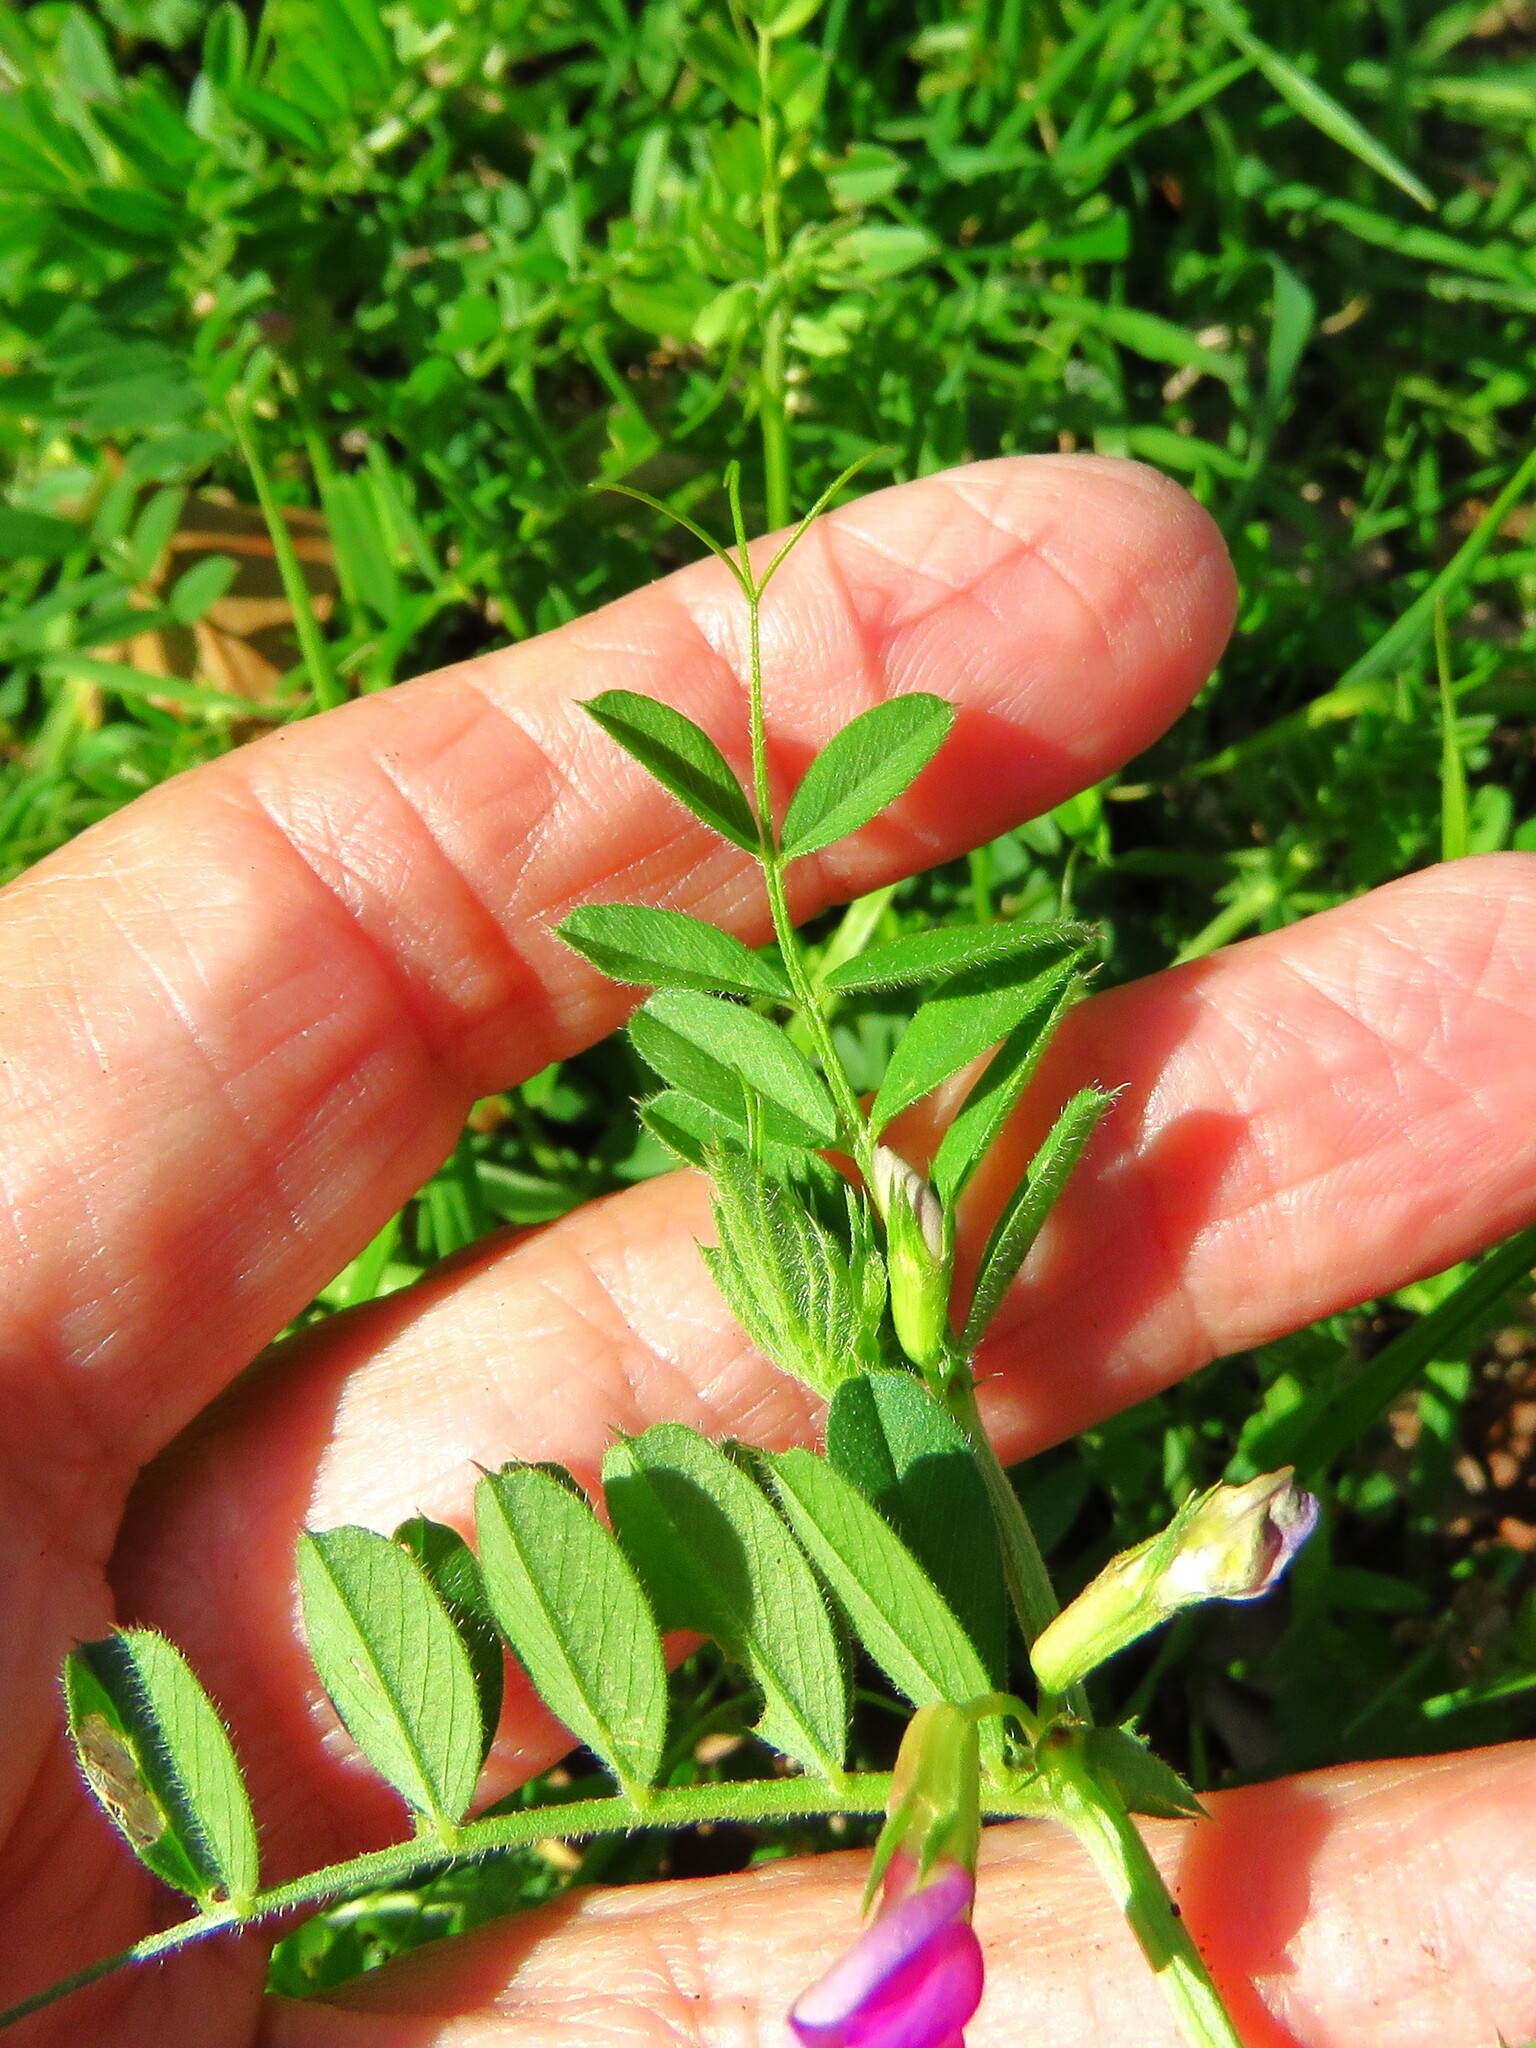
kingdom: Plantae
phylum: Tracheophyta
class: Magnoliopsida
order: Fabales
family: Fabaceae
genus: Vicia
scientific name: Vicia sativa
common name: Garden vetch
